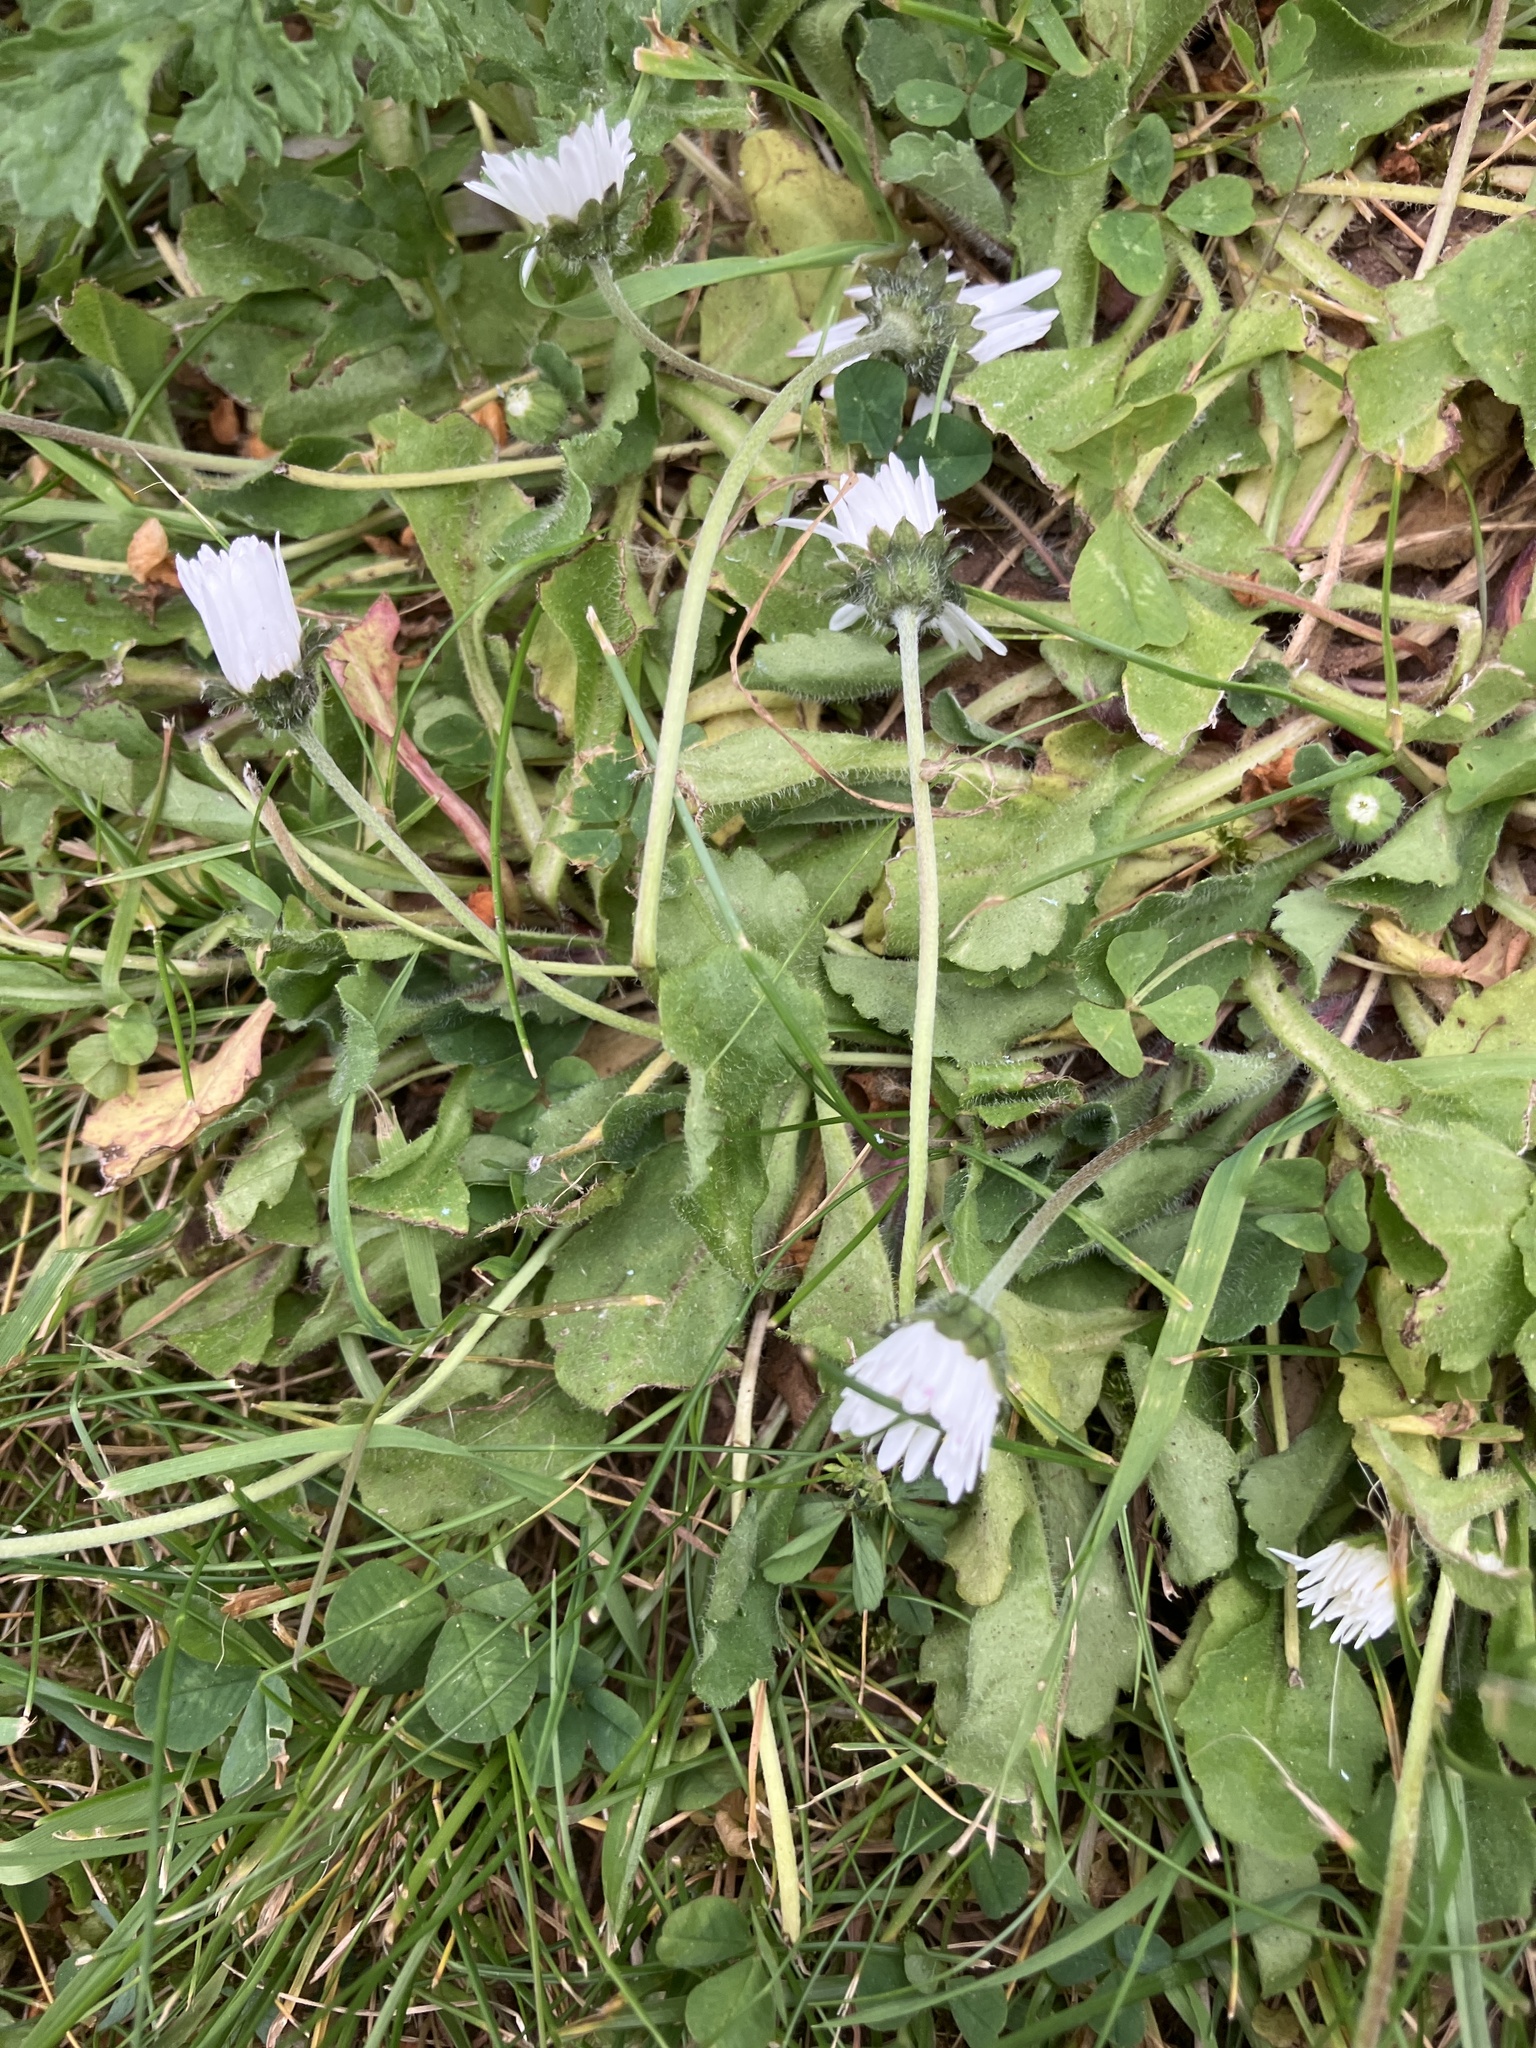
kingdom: Plantae
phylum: Tracheophyta
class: Magnoliopsida
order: Asterales
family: Asteraceae
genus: Bellis
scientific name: Bellis perennis
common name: Lawndaisy
